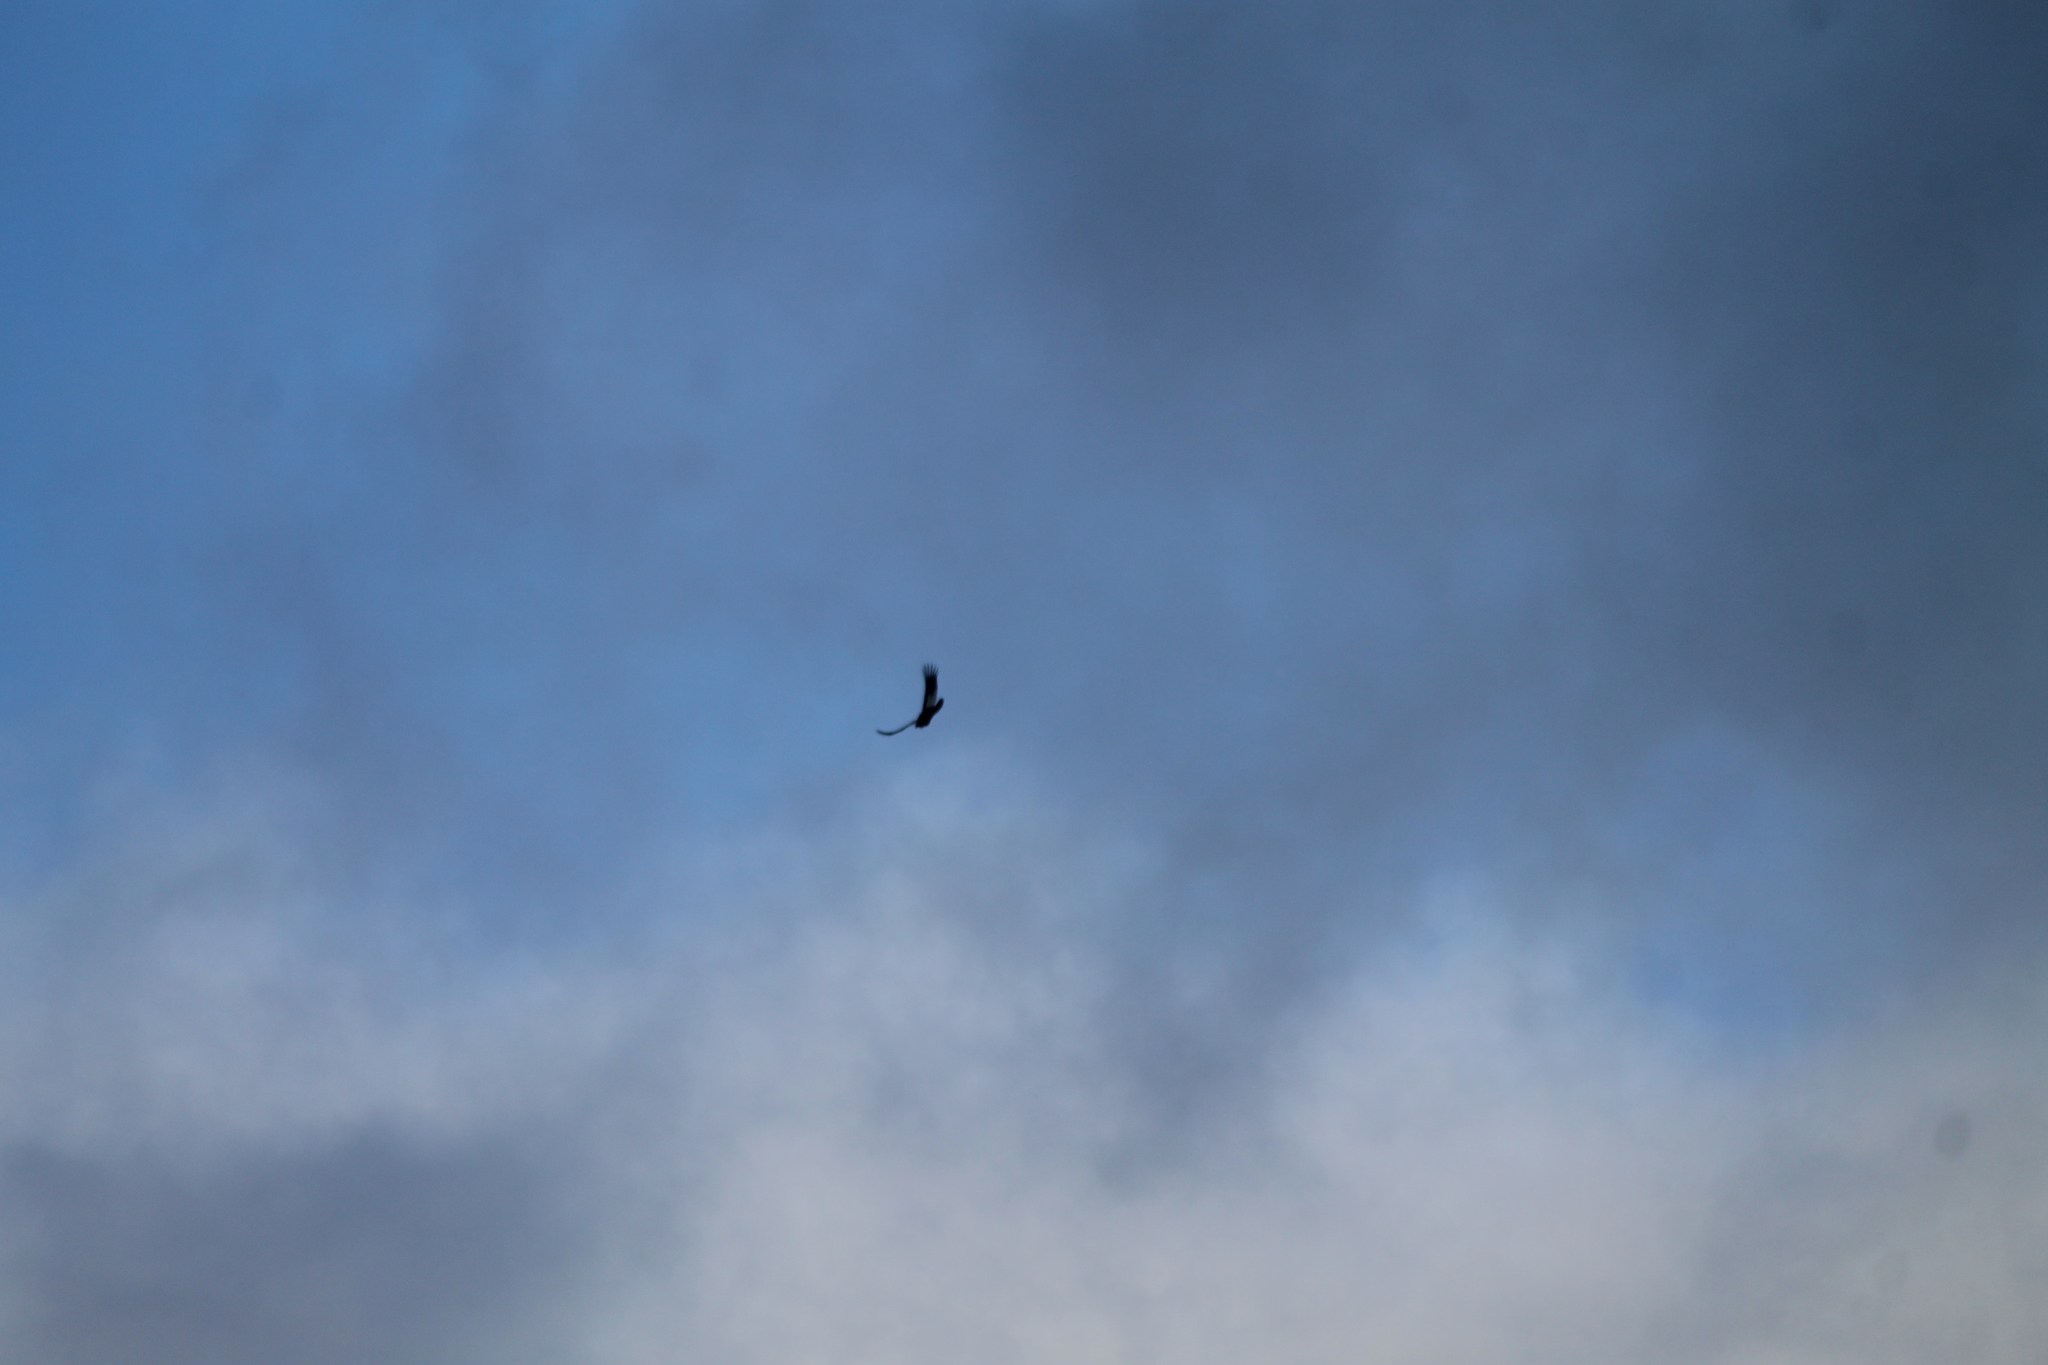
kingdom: Animalia
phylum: Chordata
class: Aves
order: Accipitriformes
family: Cathartidae
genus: Vultur
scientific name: Vultur gryphus
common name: Andean condor
